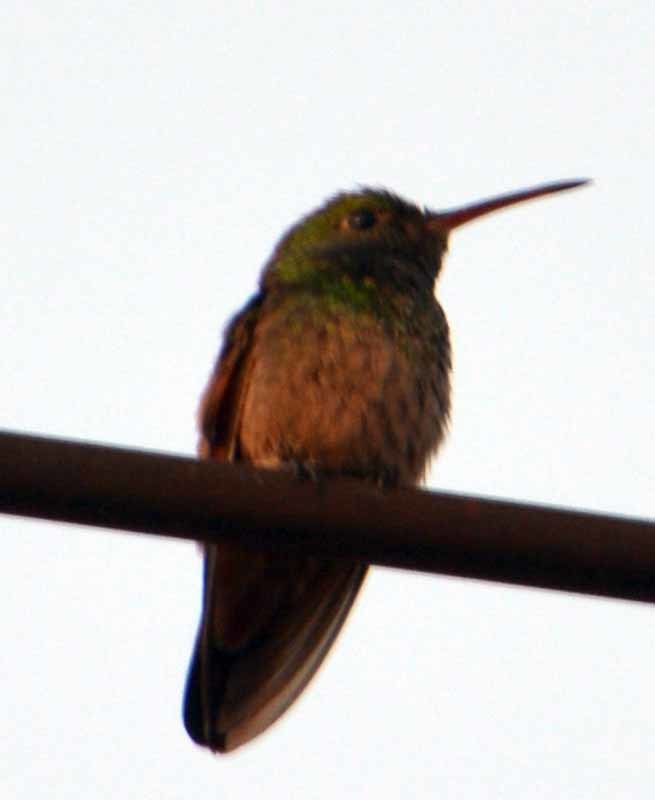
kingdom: Animalia
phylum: Chordata
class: Aves
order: Apodiformes
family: Trochilidae
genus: Saucerottia
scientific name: Saucerottia beryllina
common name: Berylline hummingbird
